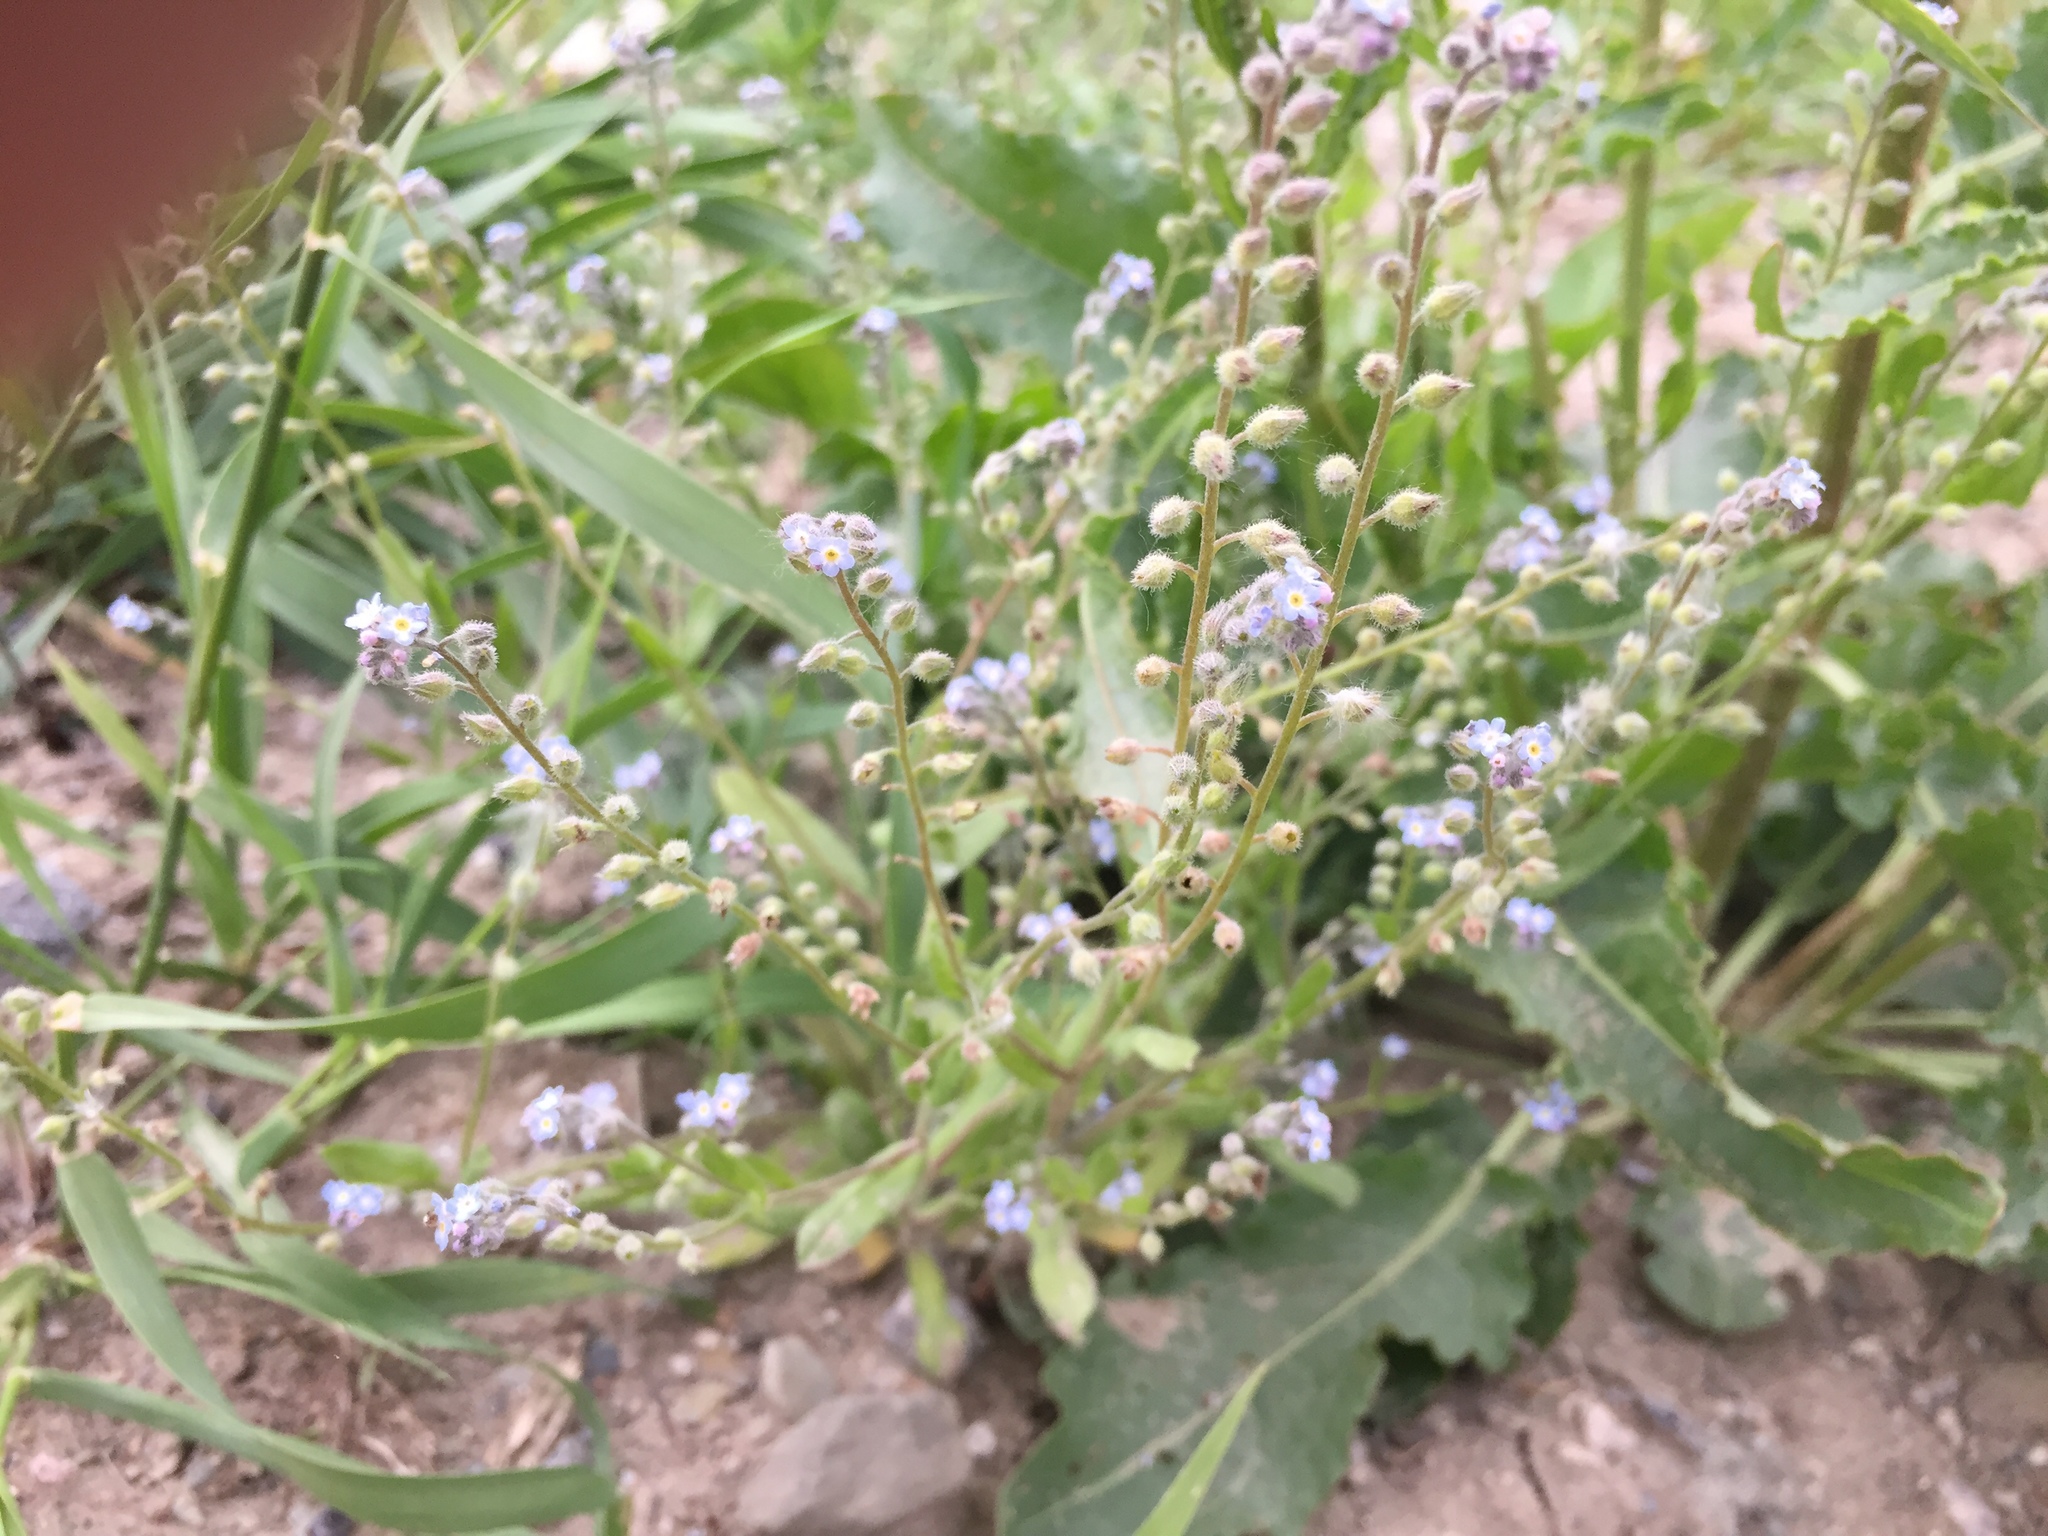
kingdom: Plantae
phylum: Tracheophyta
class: Magnoliopsida
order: Boraginales
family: Boraginaceae
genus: Myosotis
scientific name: Myosotis arvensis
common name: Field forget-me-not
